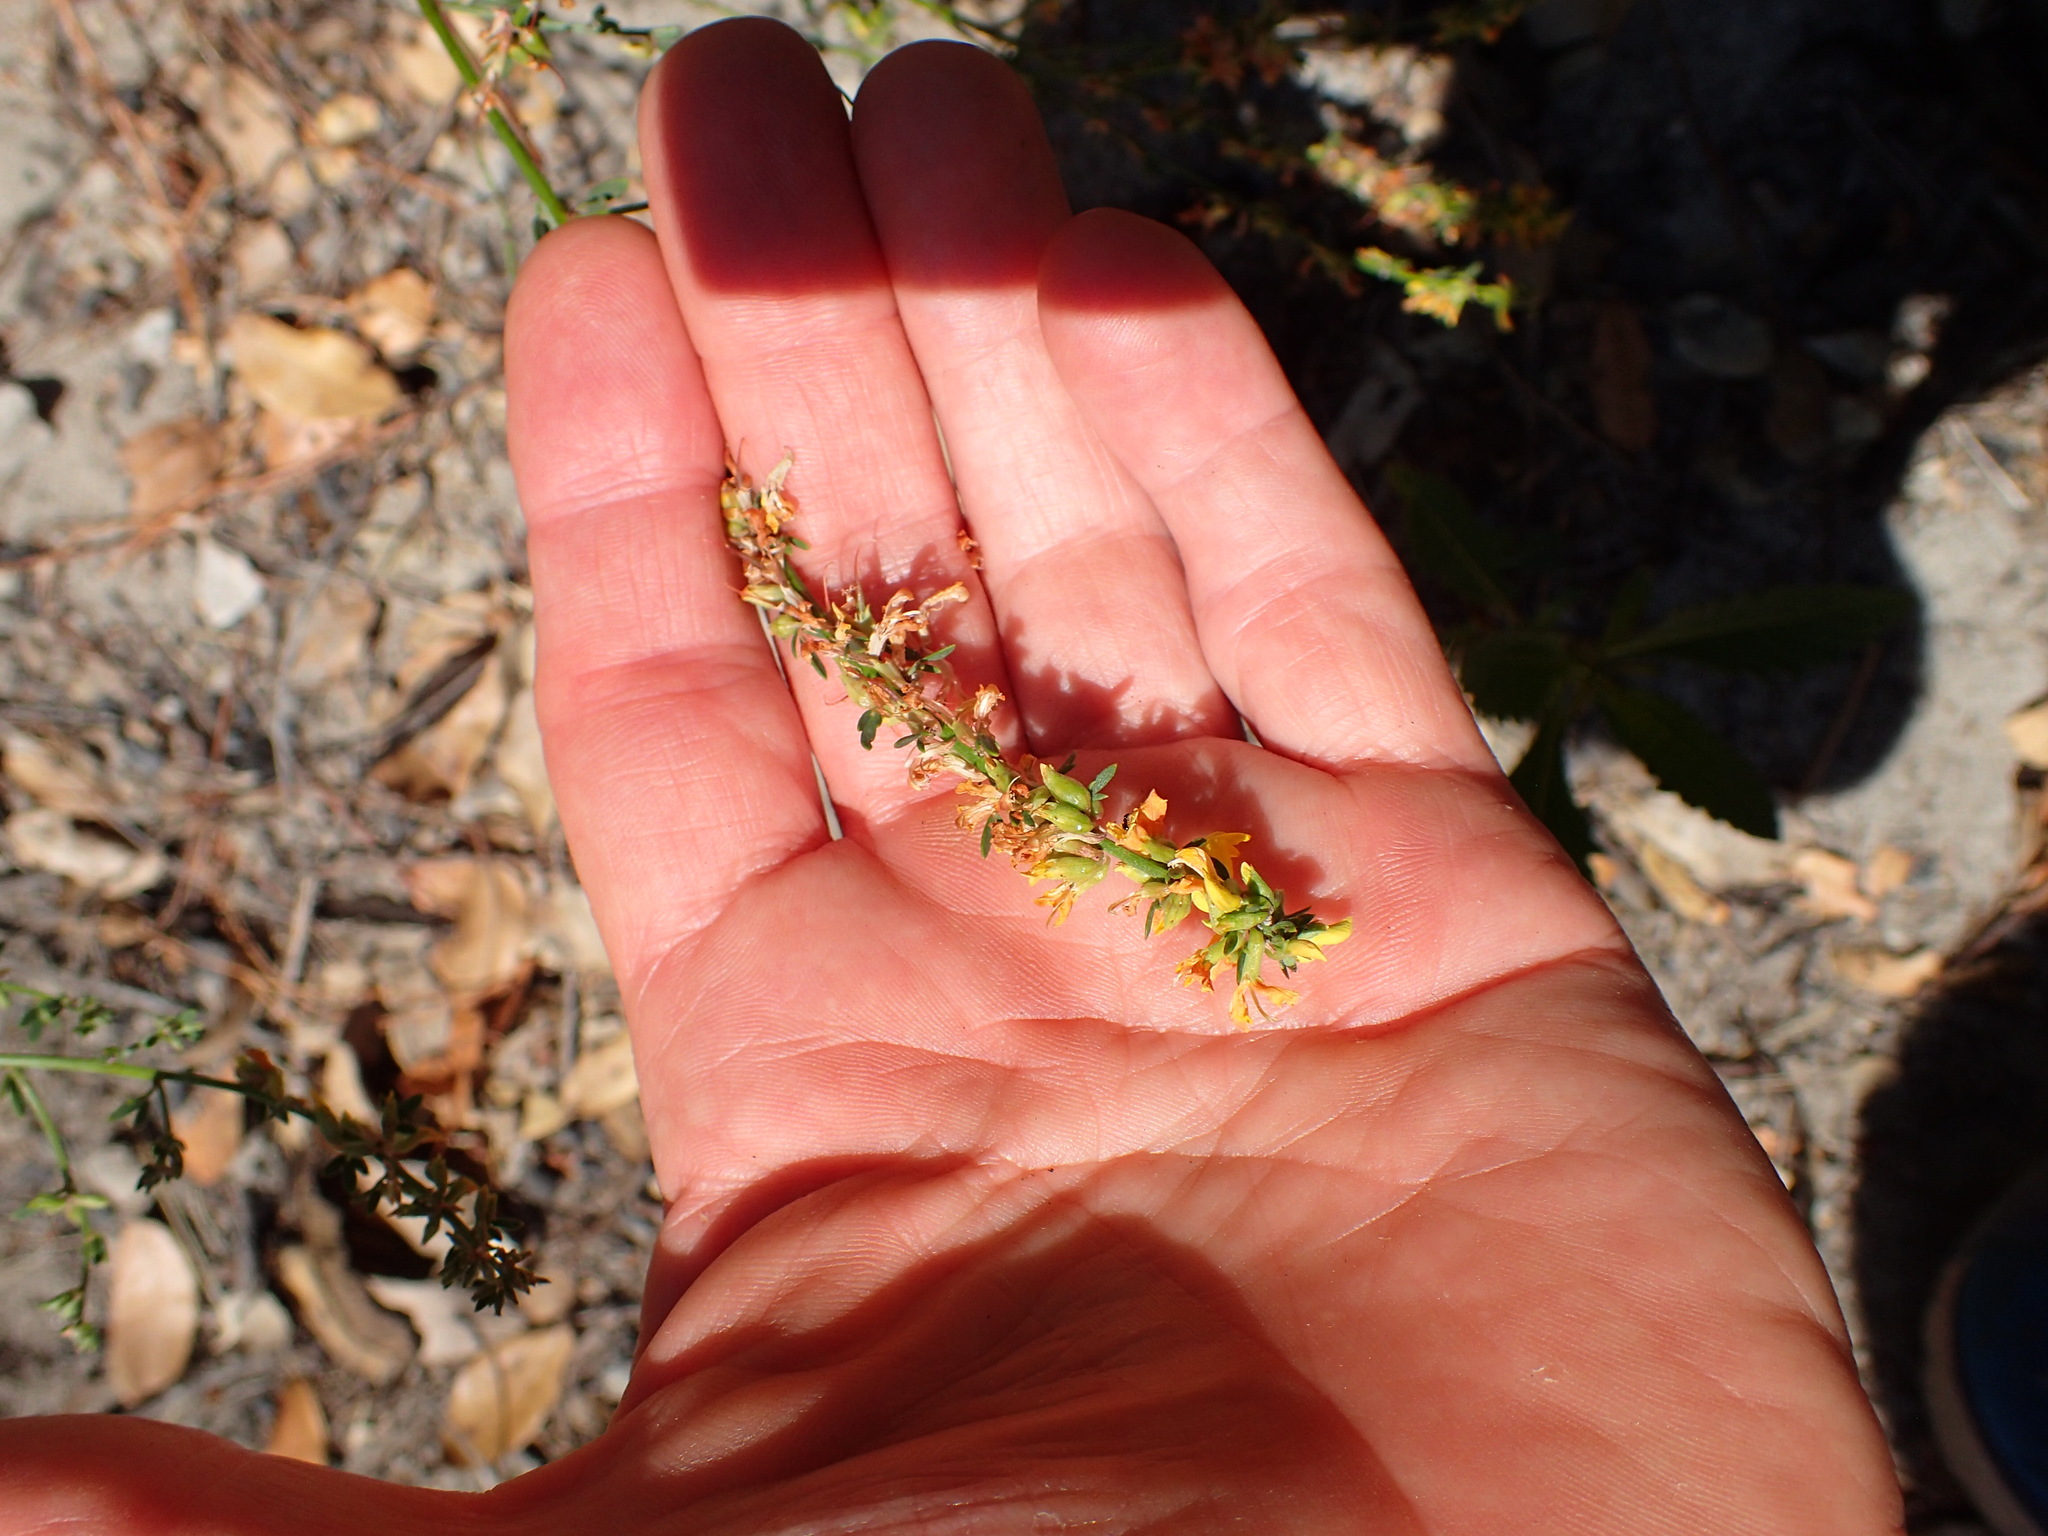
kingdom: Plantae
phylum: Tracheophyta
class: Magnoliopsida
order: Fabales
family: Fabaceae
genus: Acmispon
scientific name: Acmispon glaber
